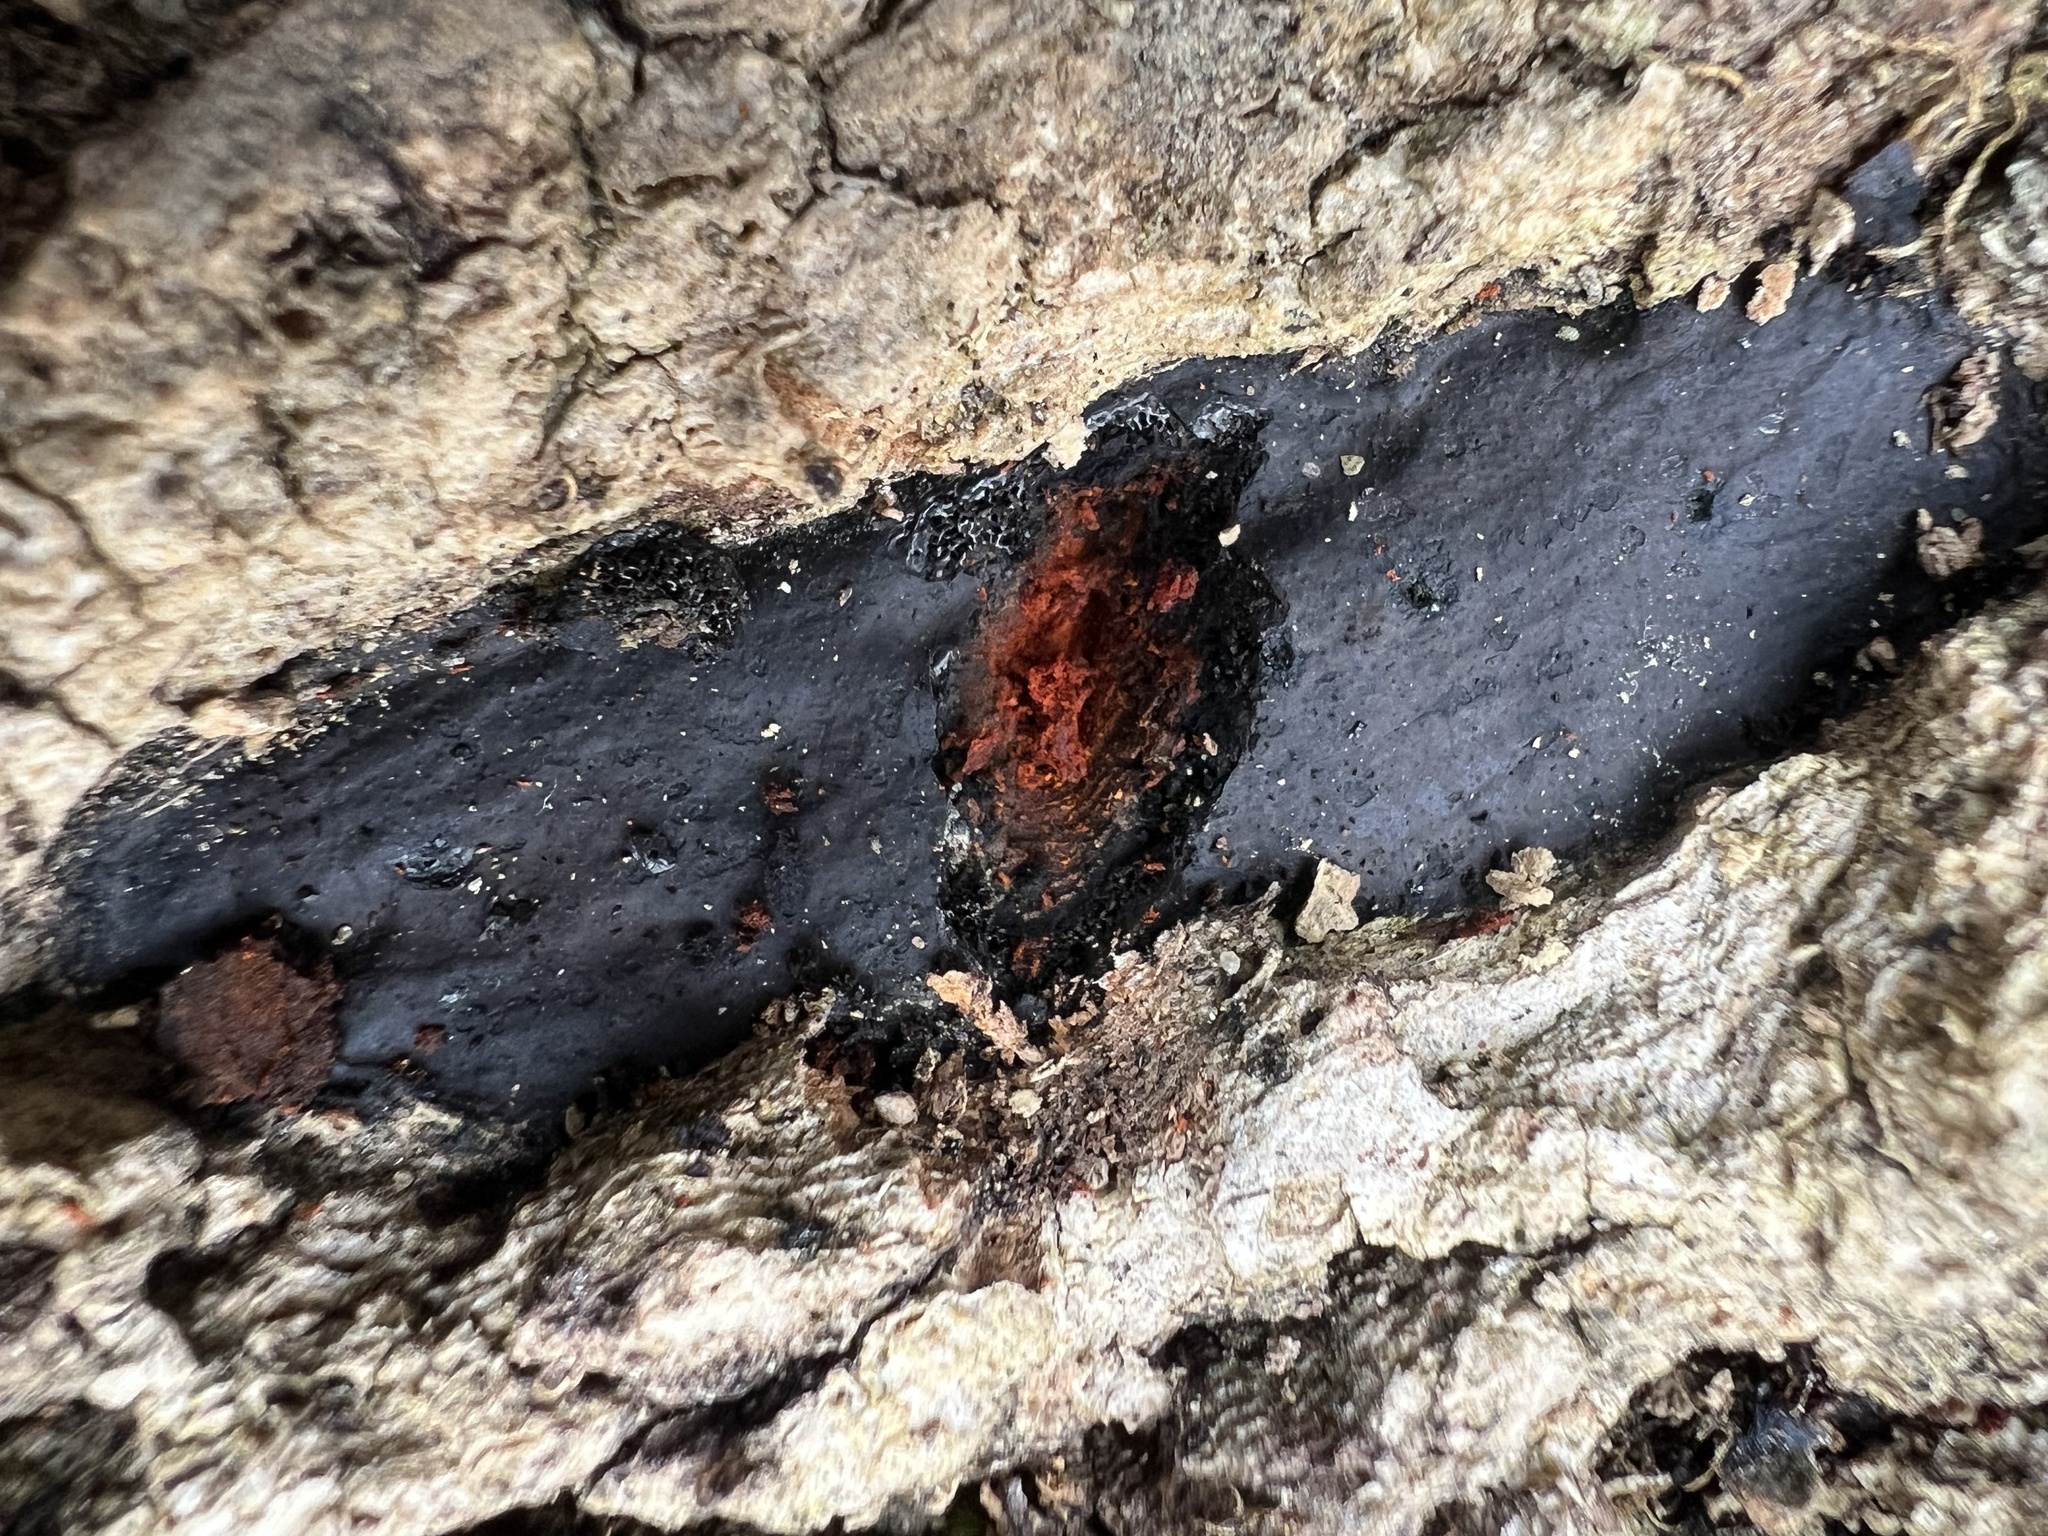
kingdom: Fungi
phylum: Ascomycota
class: Sordariomycetes
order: Xylariales
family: Graphostromataceae
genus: Camillea
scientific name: Camillea tinctor
